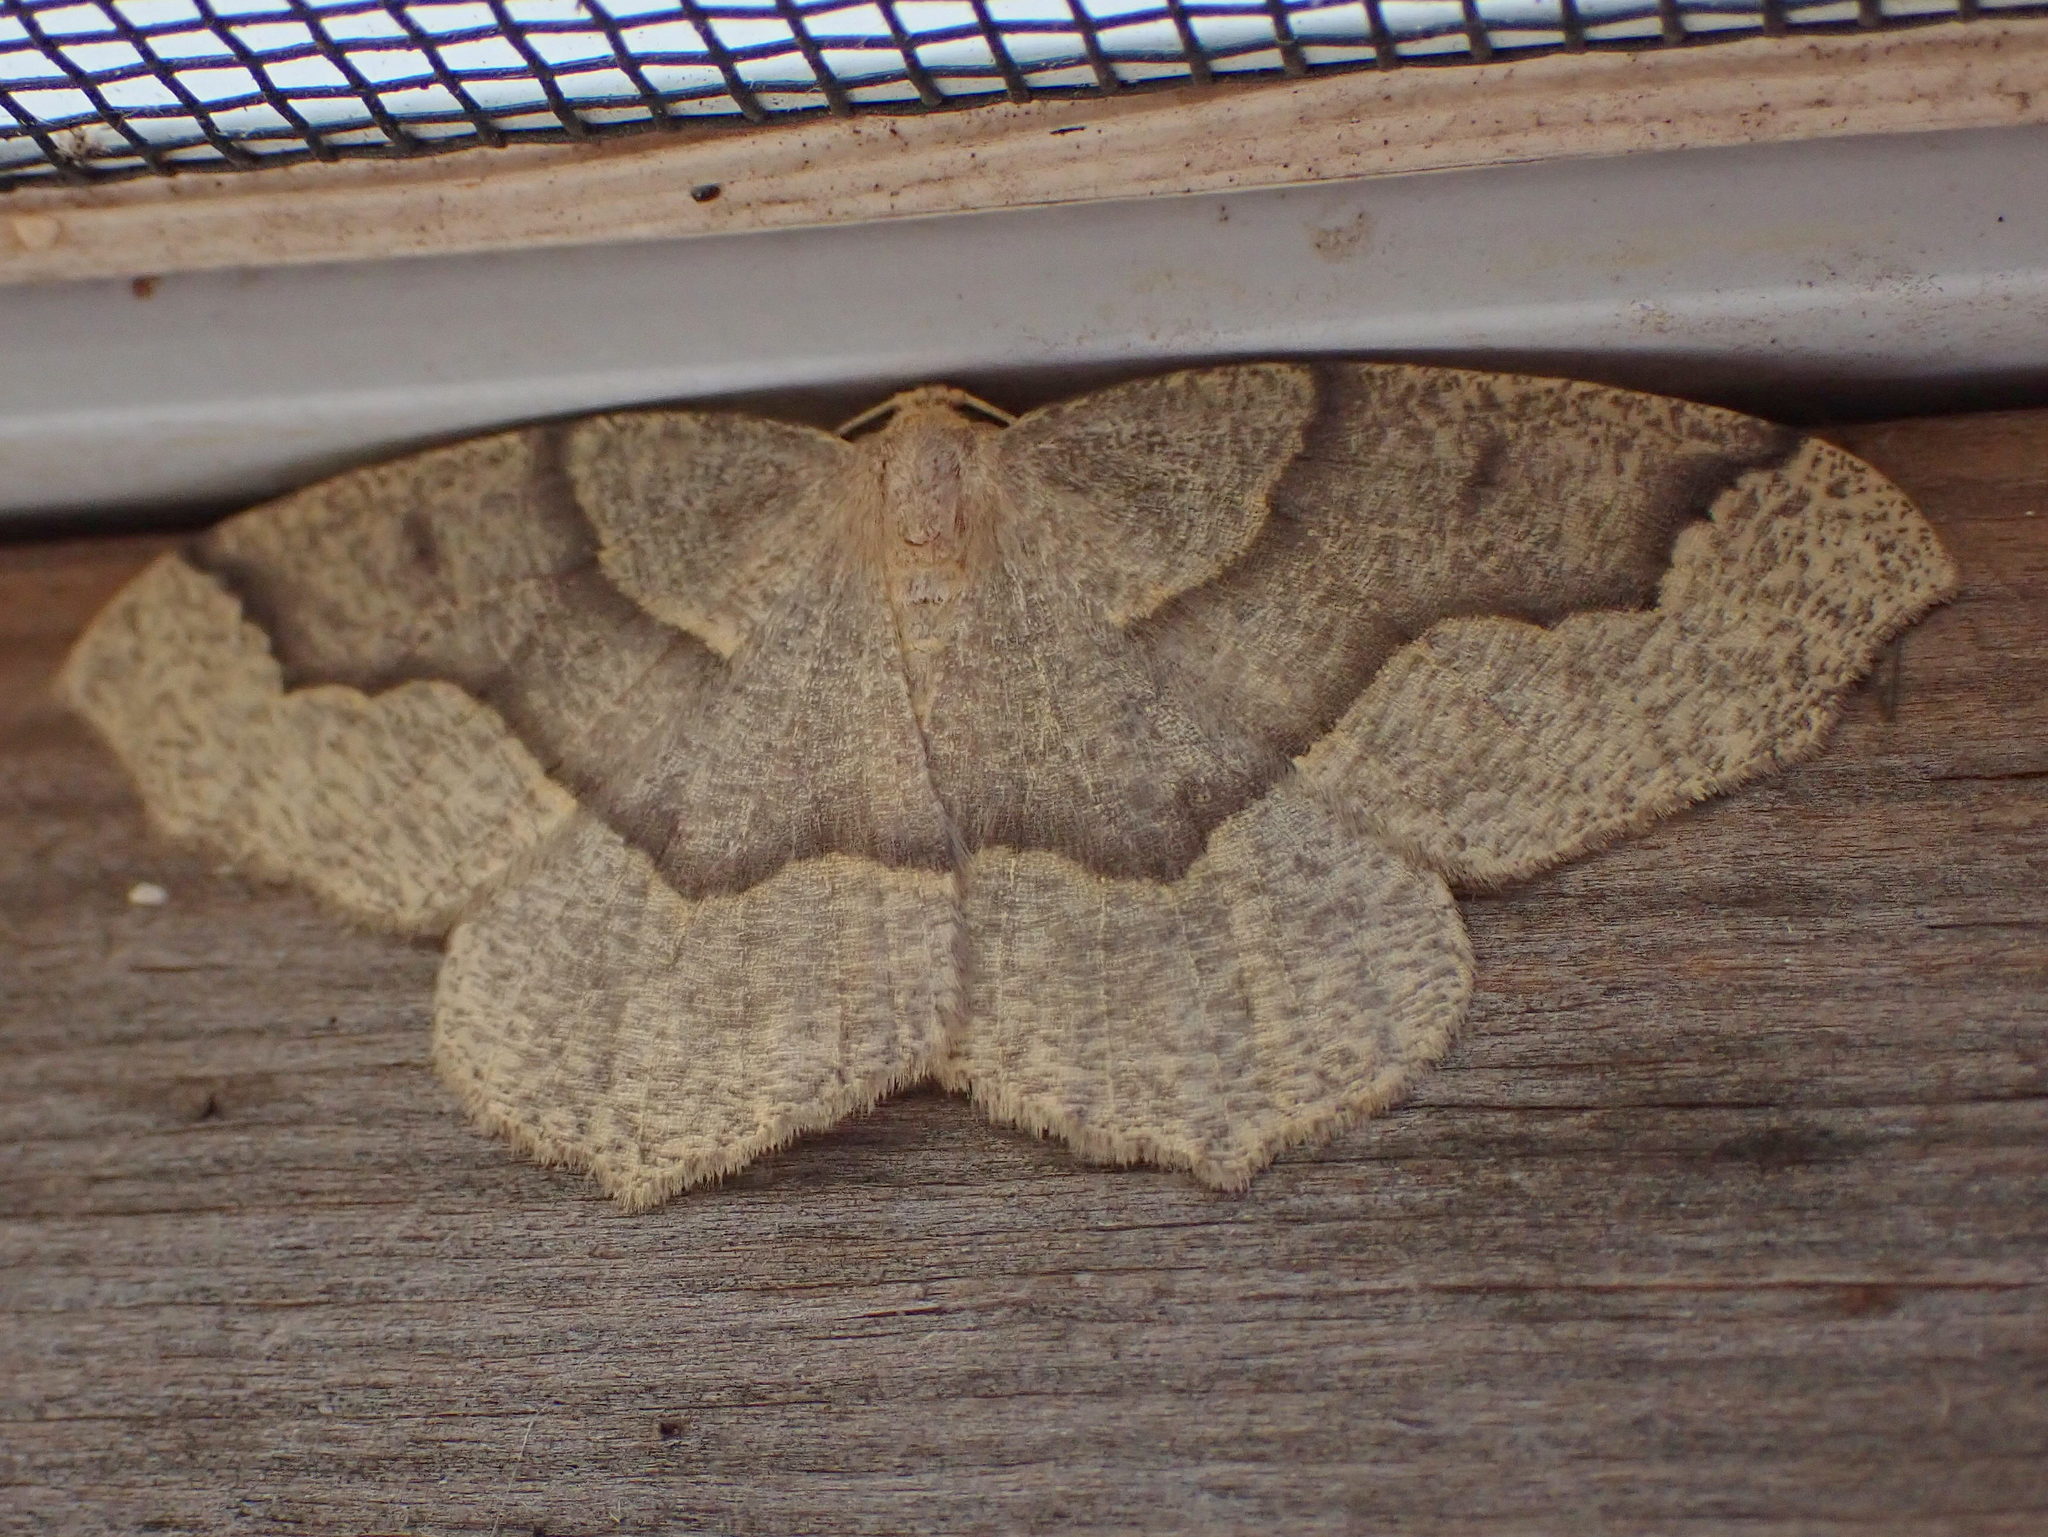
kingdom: Animalia
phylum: Arthropoda
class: Insecta
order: Lepidoptera
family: Geometridae
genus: Lambdina
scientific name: Lambdina fiscellaria
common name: Hemlock looper
